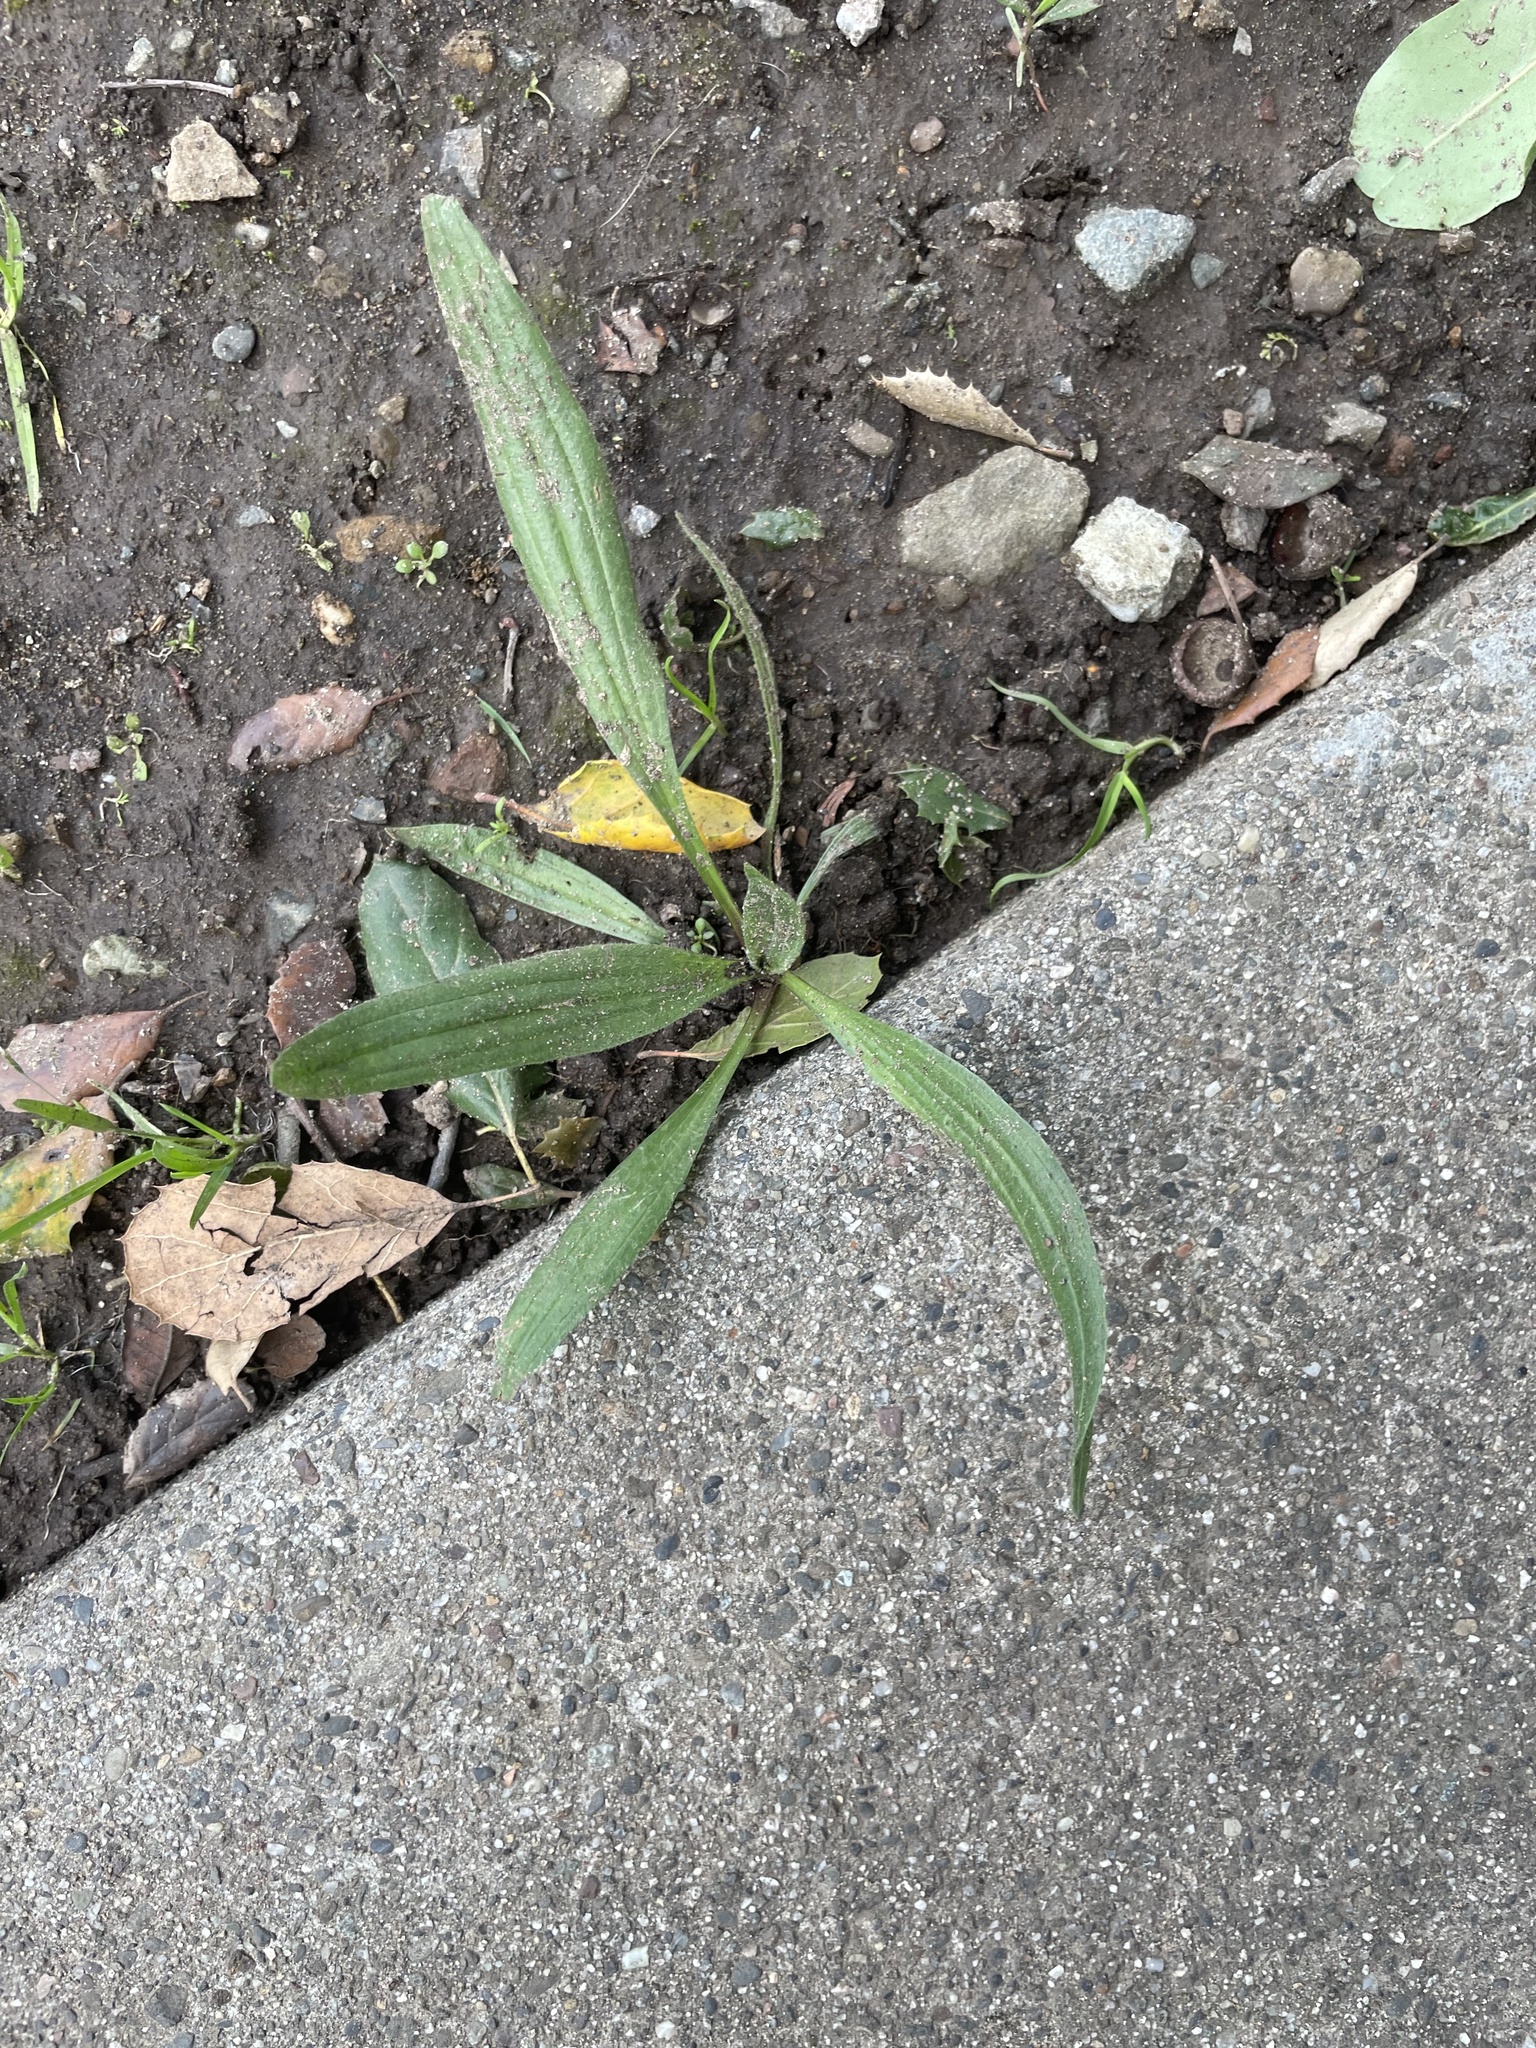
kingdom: Plantae
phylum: Tracheophyta
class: Magnoliopsida
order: Lamiales
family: Plantaginaceae
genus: Plantago
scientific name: Plantago lanceolata
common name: Ribwort plantain
